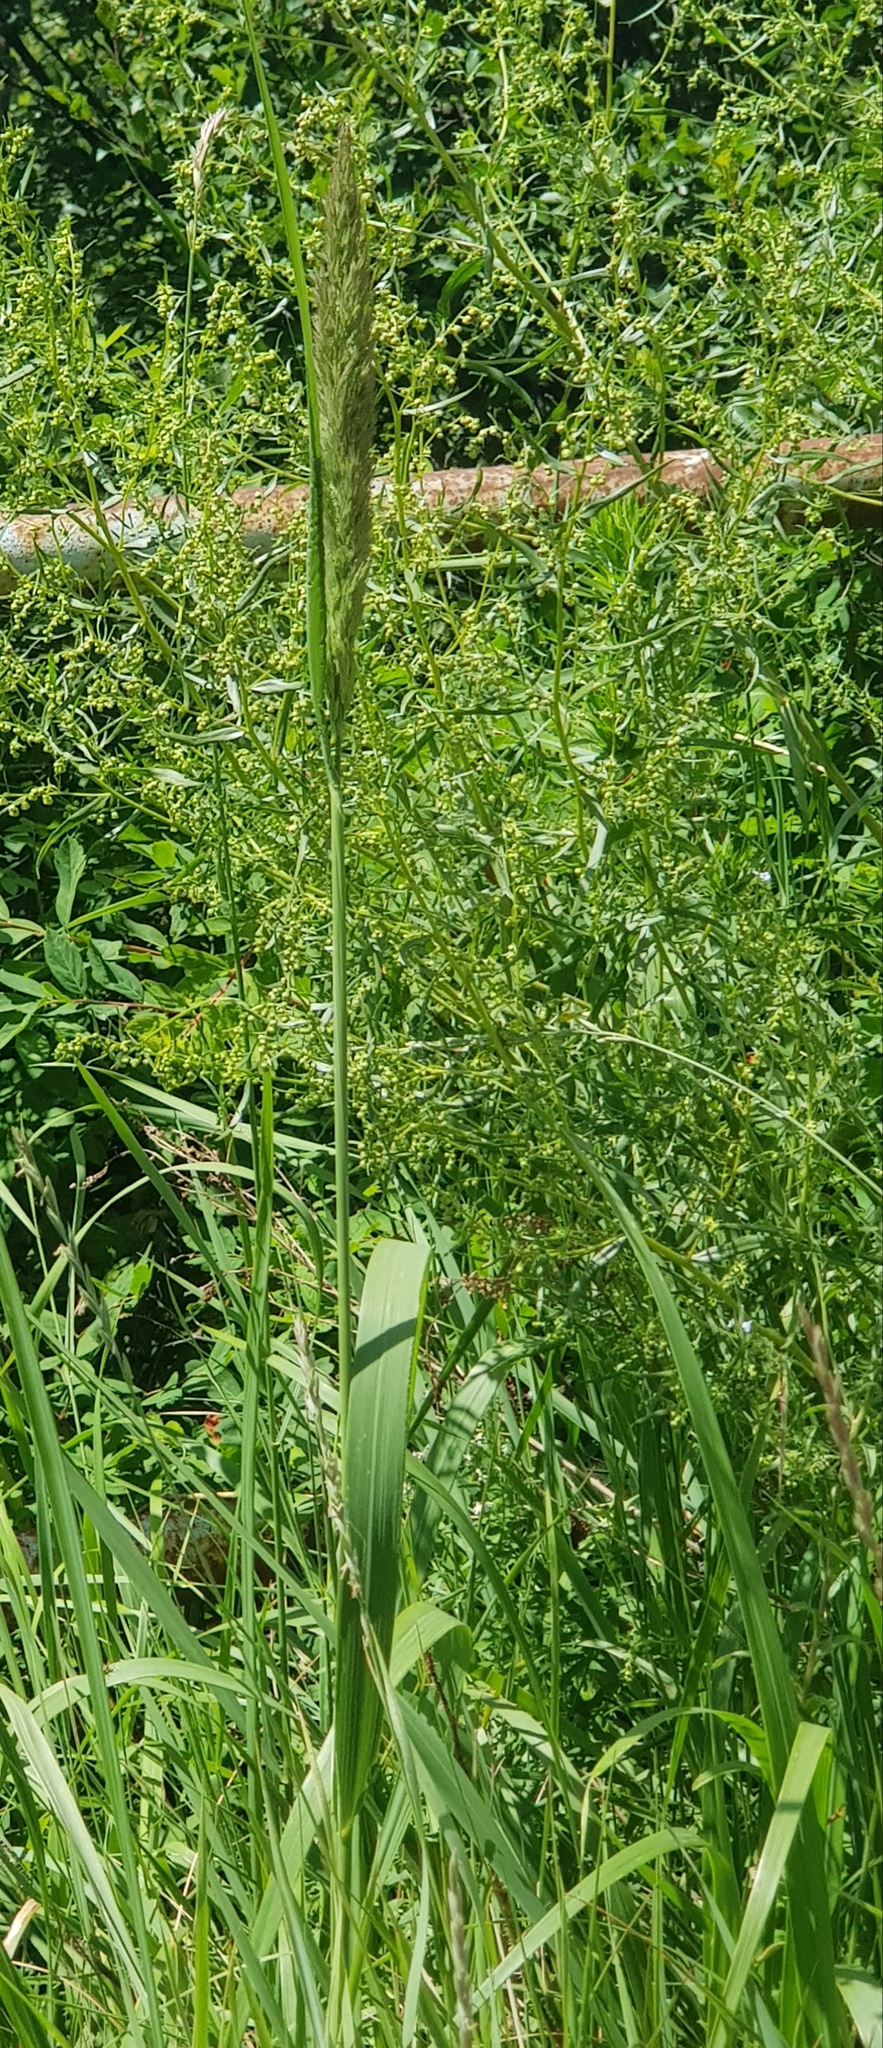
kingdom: Plantae
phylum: Tracheophyta
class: Liliopsida
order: Poales
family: Poaceae
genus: Calamagrostis
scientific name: Calamagrostis epigejos
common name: Wood small-reed
